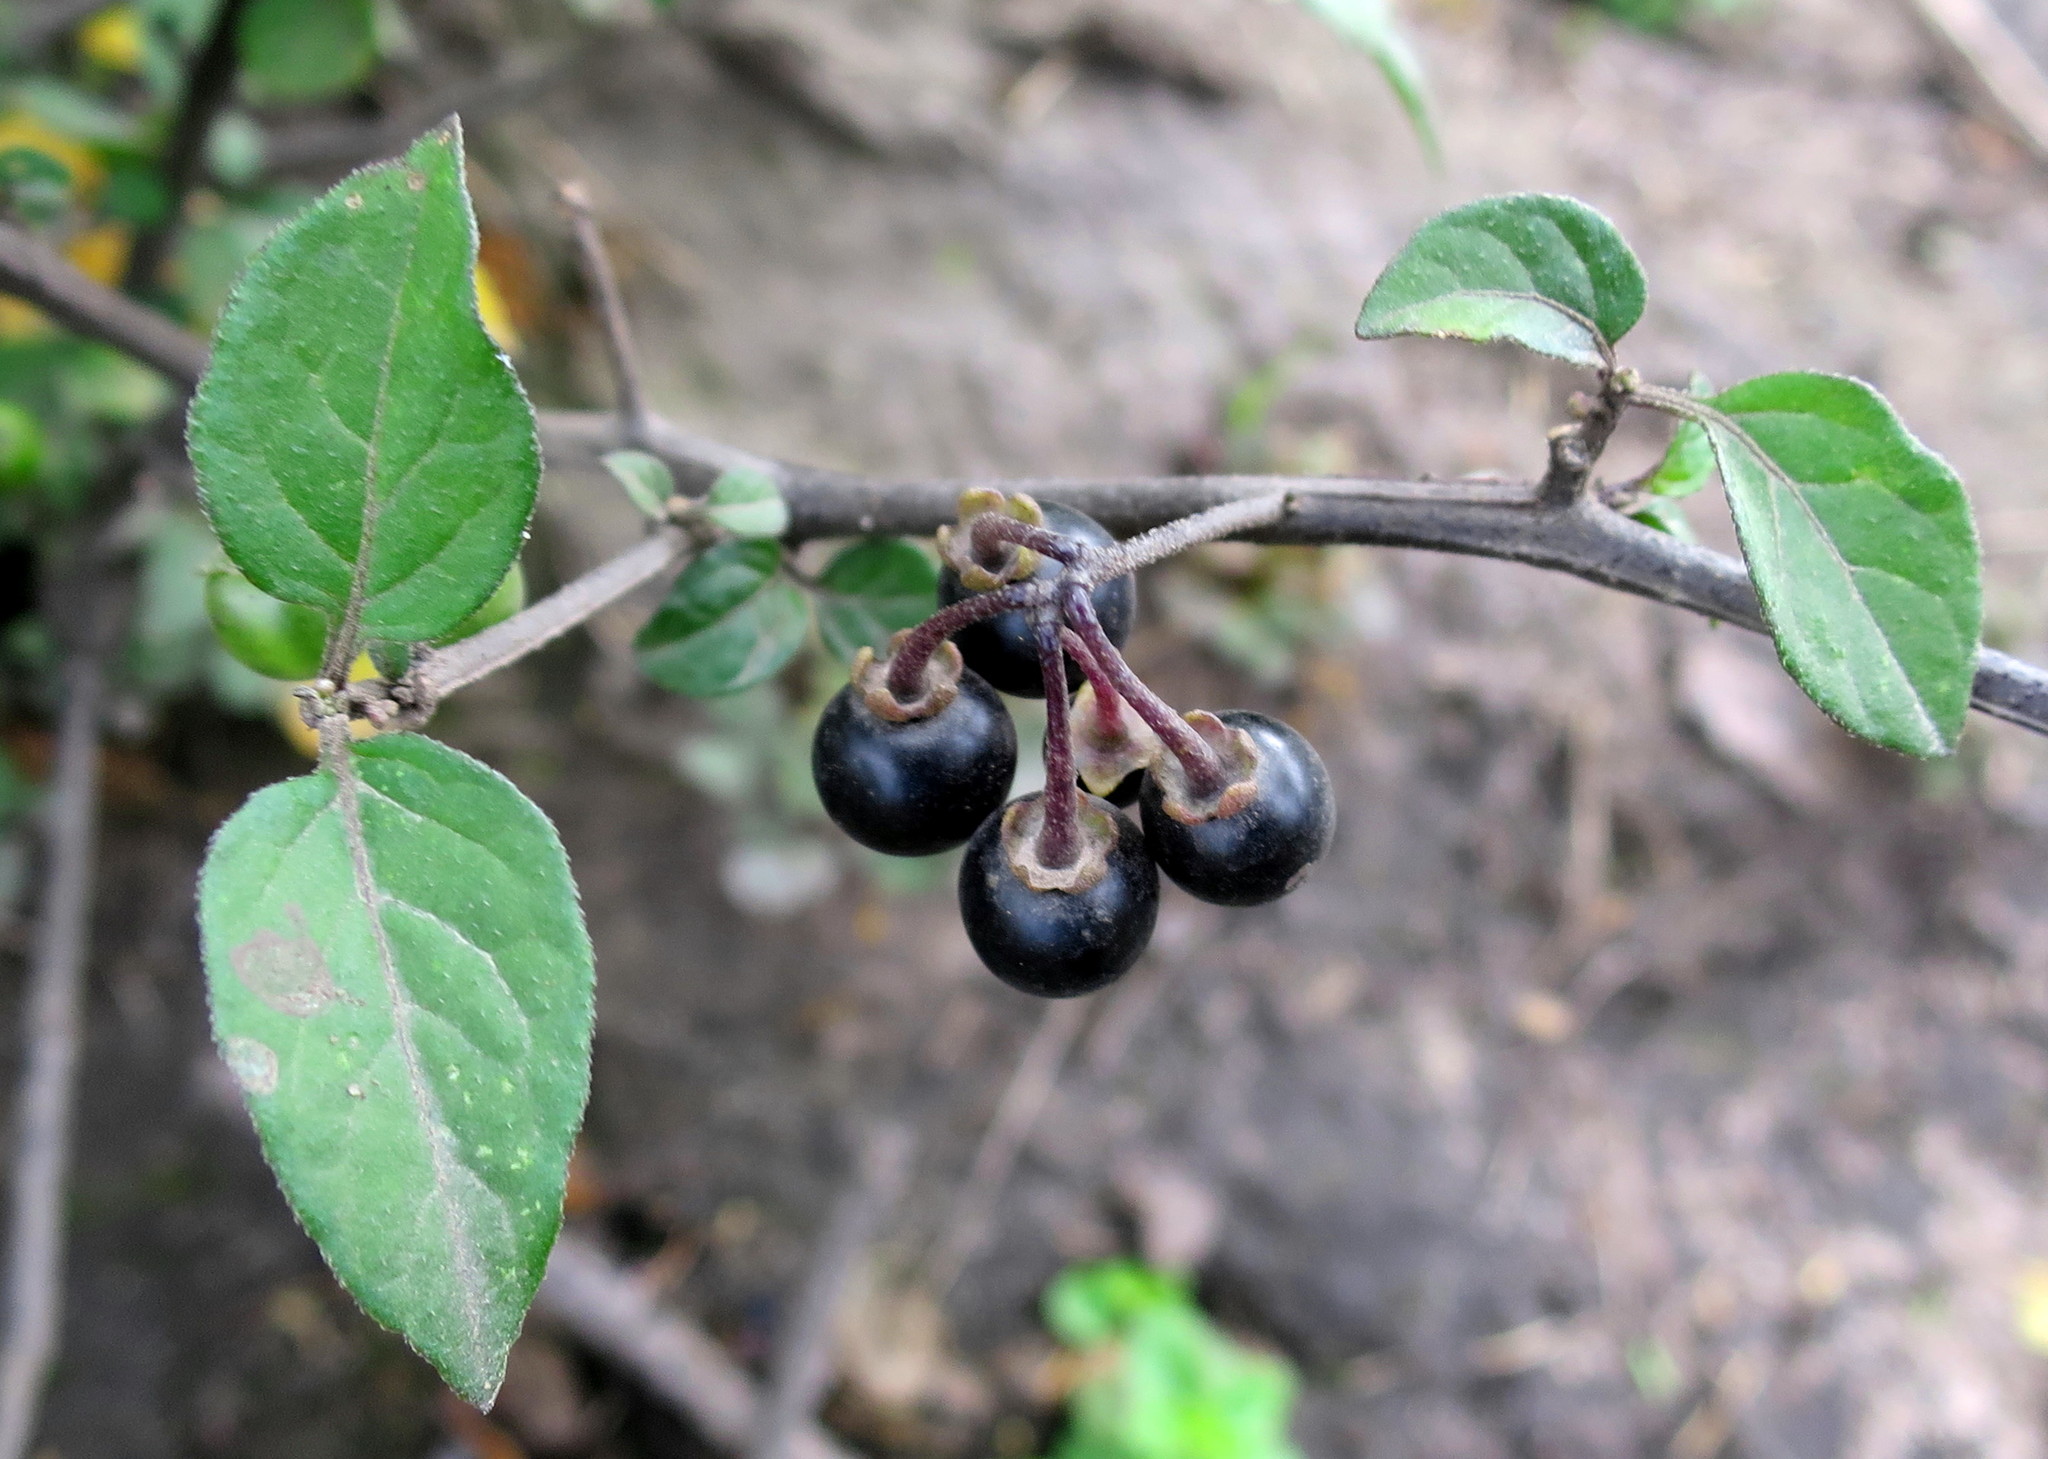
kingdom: Plantae
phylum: Tracheophyta
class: Magnoliopsida
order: Solanales
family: Solanaceae
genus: Solanum
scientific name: Solanum nigrum
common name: Black nightshade
